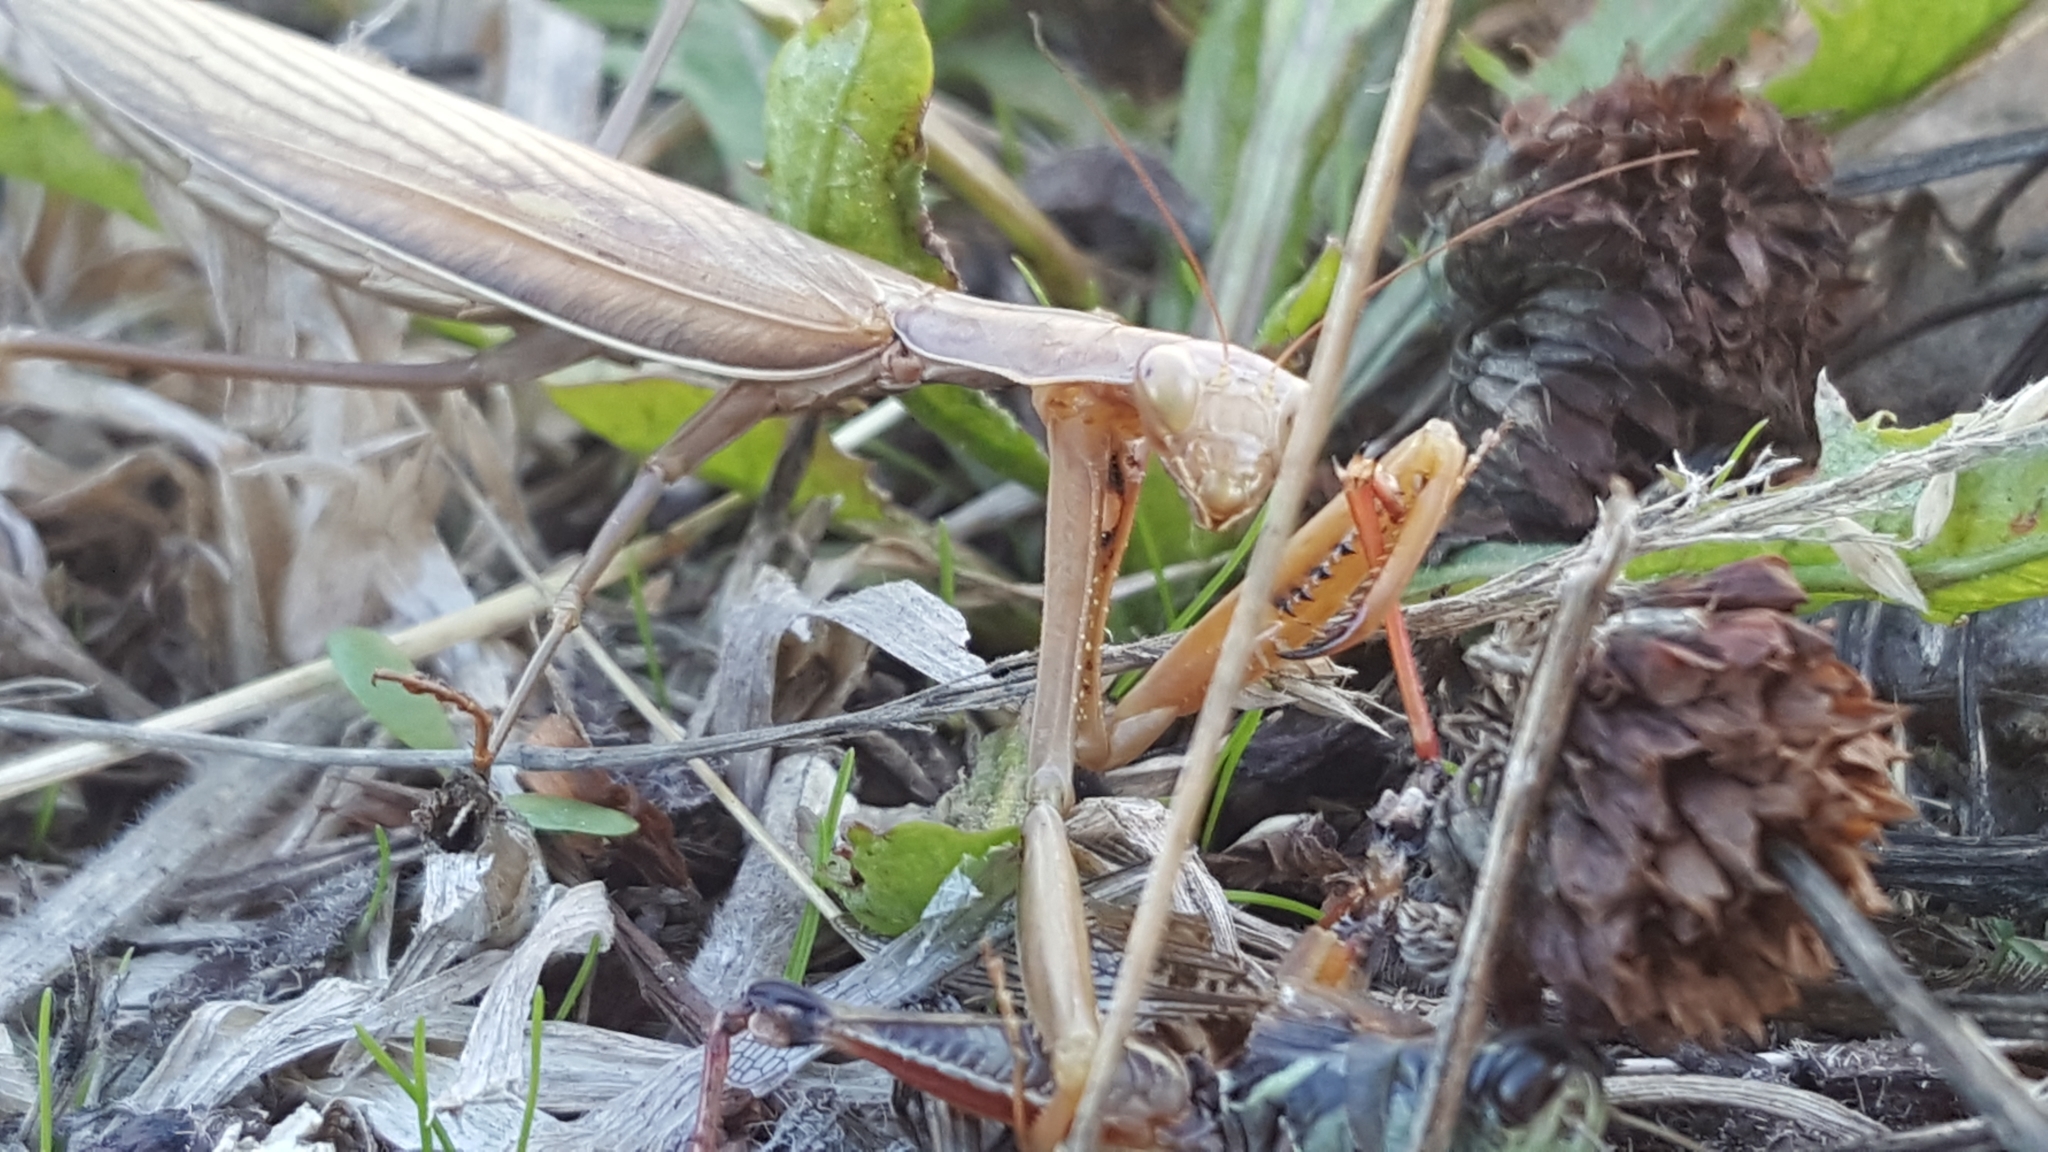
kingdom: Animalia
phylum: Arthropoda
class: Insecta
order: Mantodea
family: Mantidae
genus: Mantis
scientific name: Mantis religiosa
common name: Praying mantis
